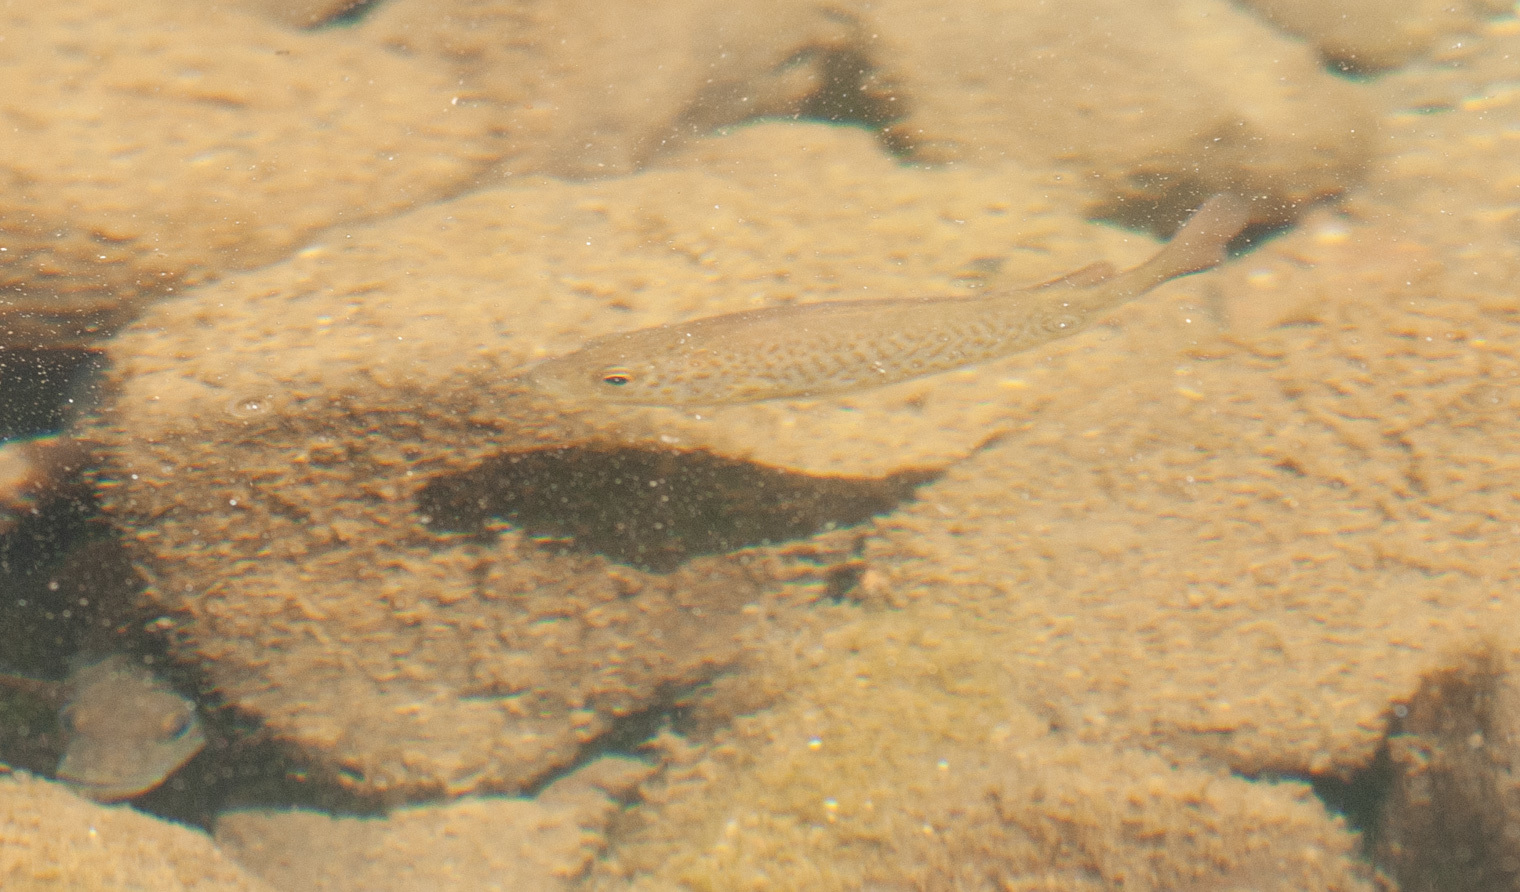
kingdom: Animalia
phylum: Chordata
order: Perciformes
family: Terapontidae
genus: Leiopotherapon
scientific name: Leiopotherapon unicolor
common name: Bobby
